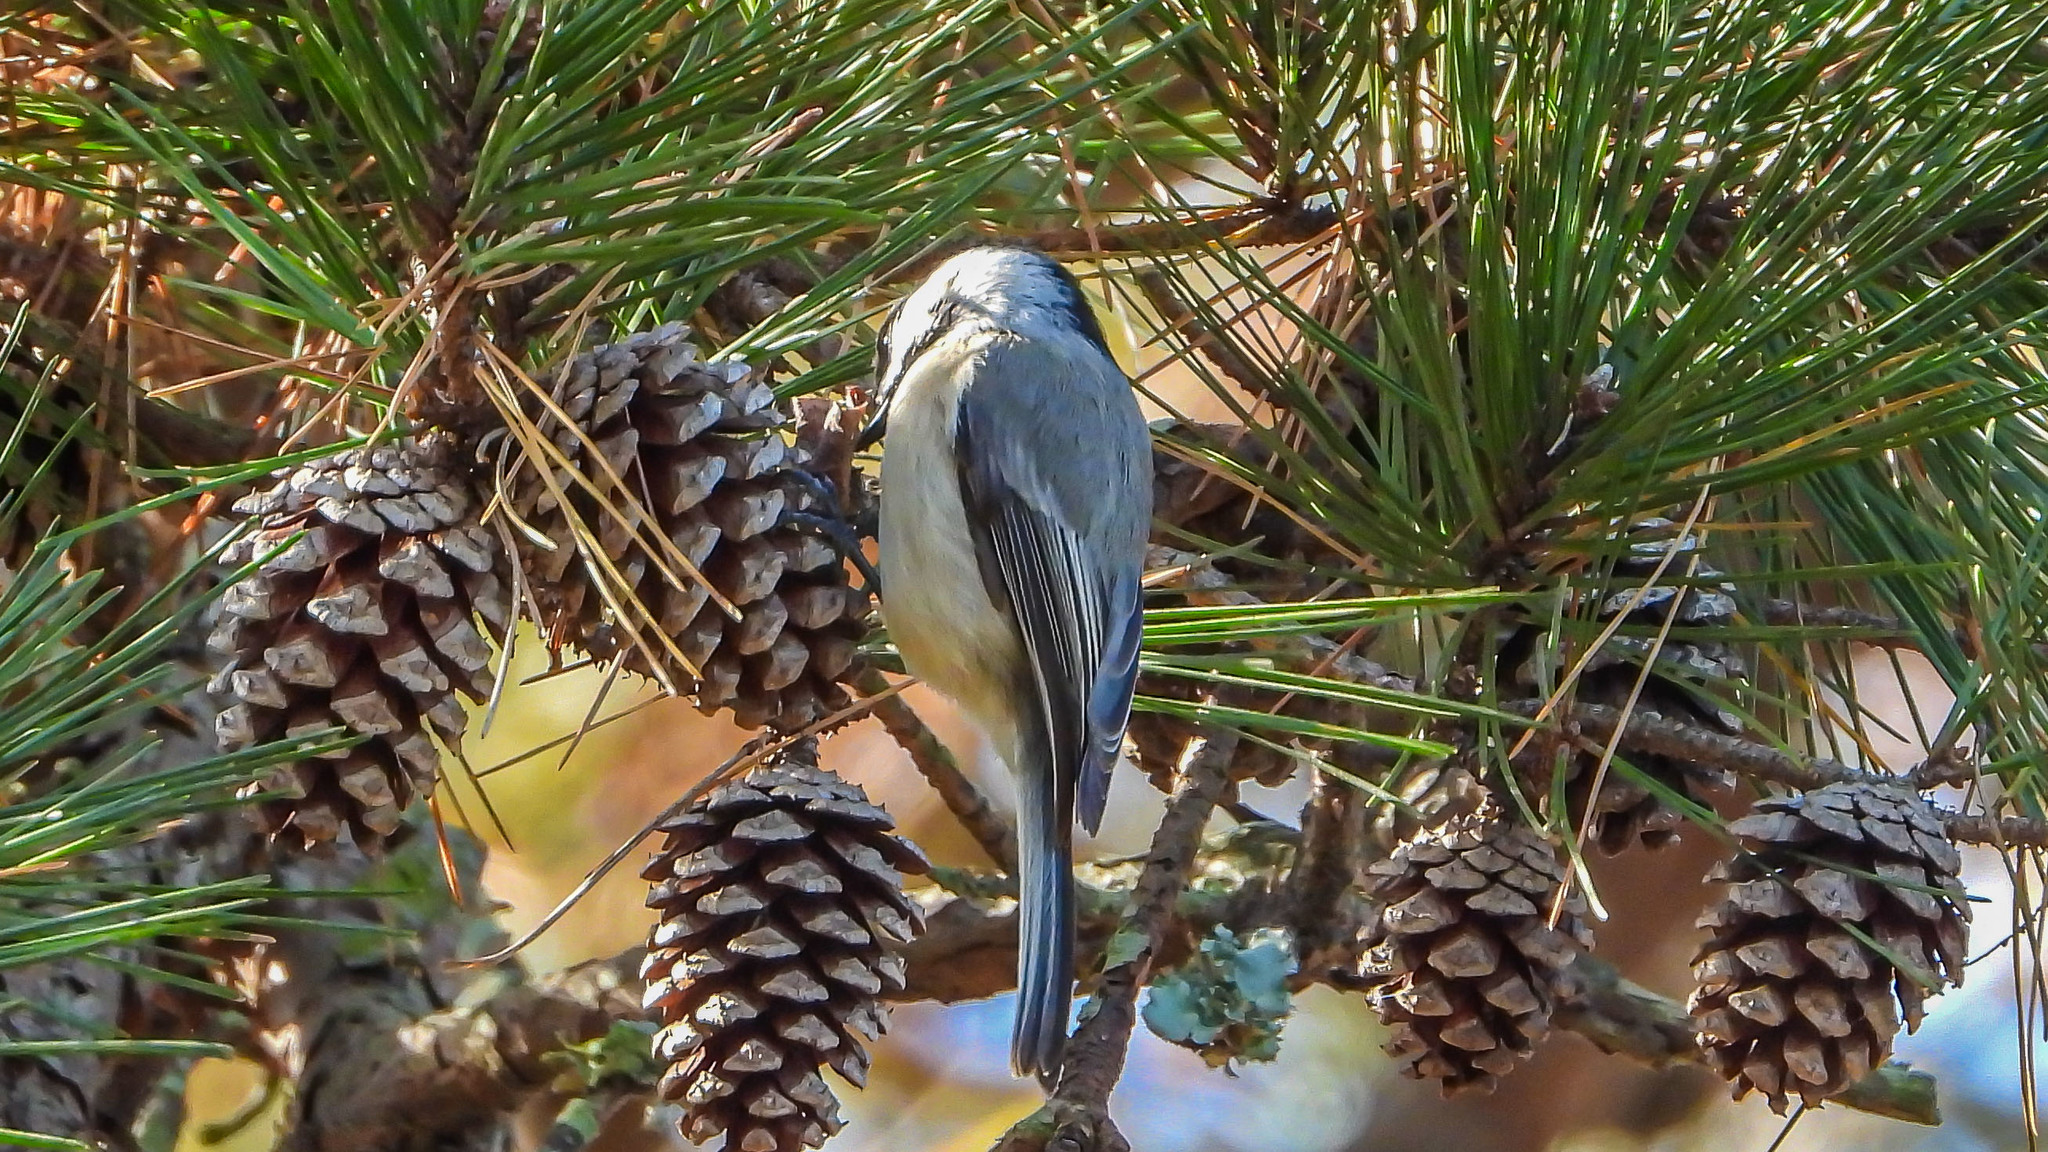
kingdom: Animalia
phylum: Chordata
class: Aves
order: Passeriformes
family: Paridae
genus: Poecile
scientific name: Poecile carolinensis
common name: Carolina chickadee
